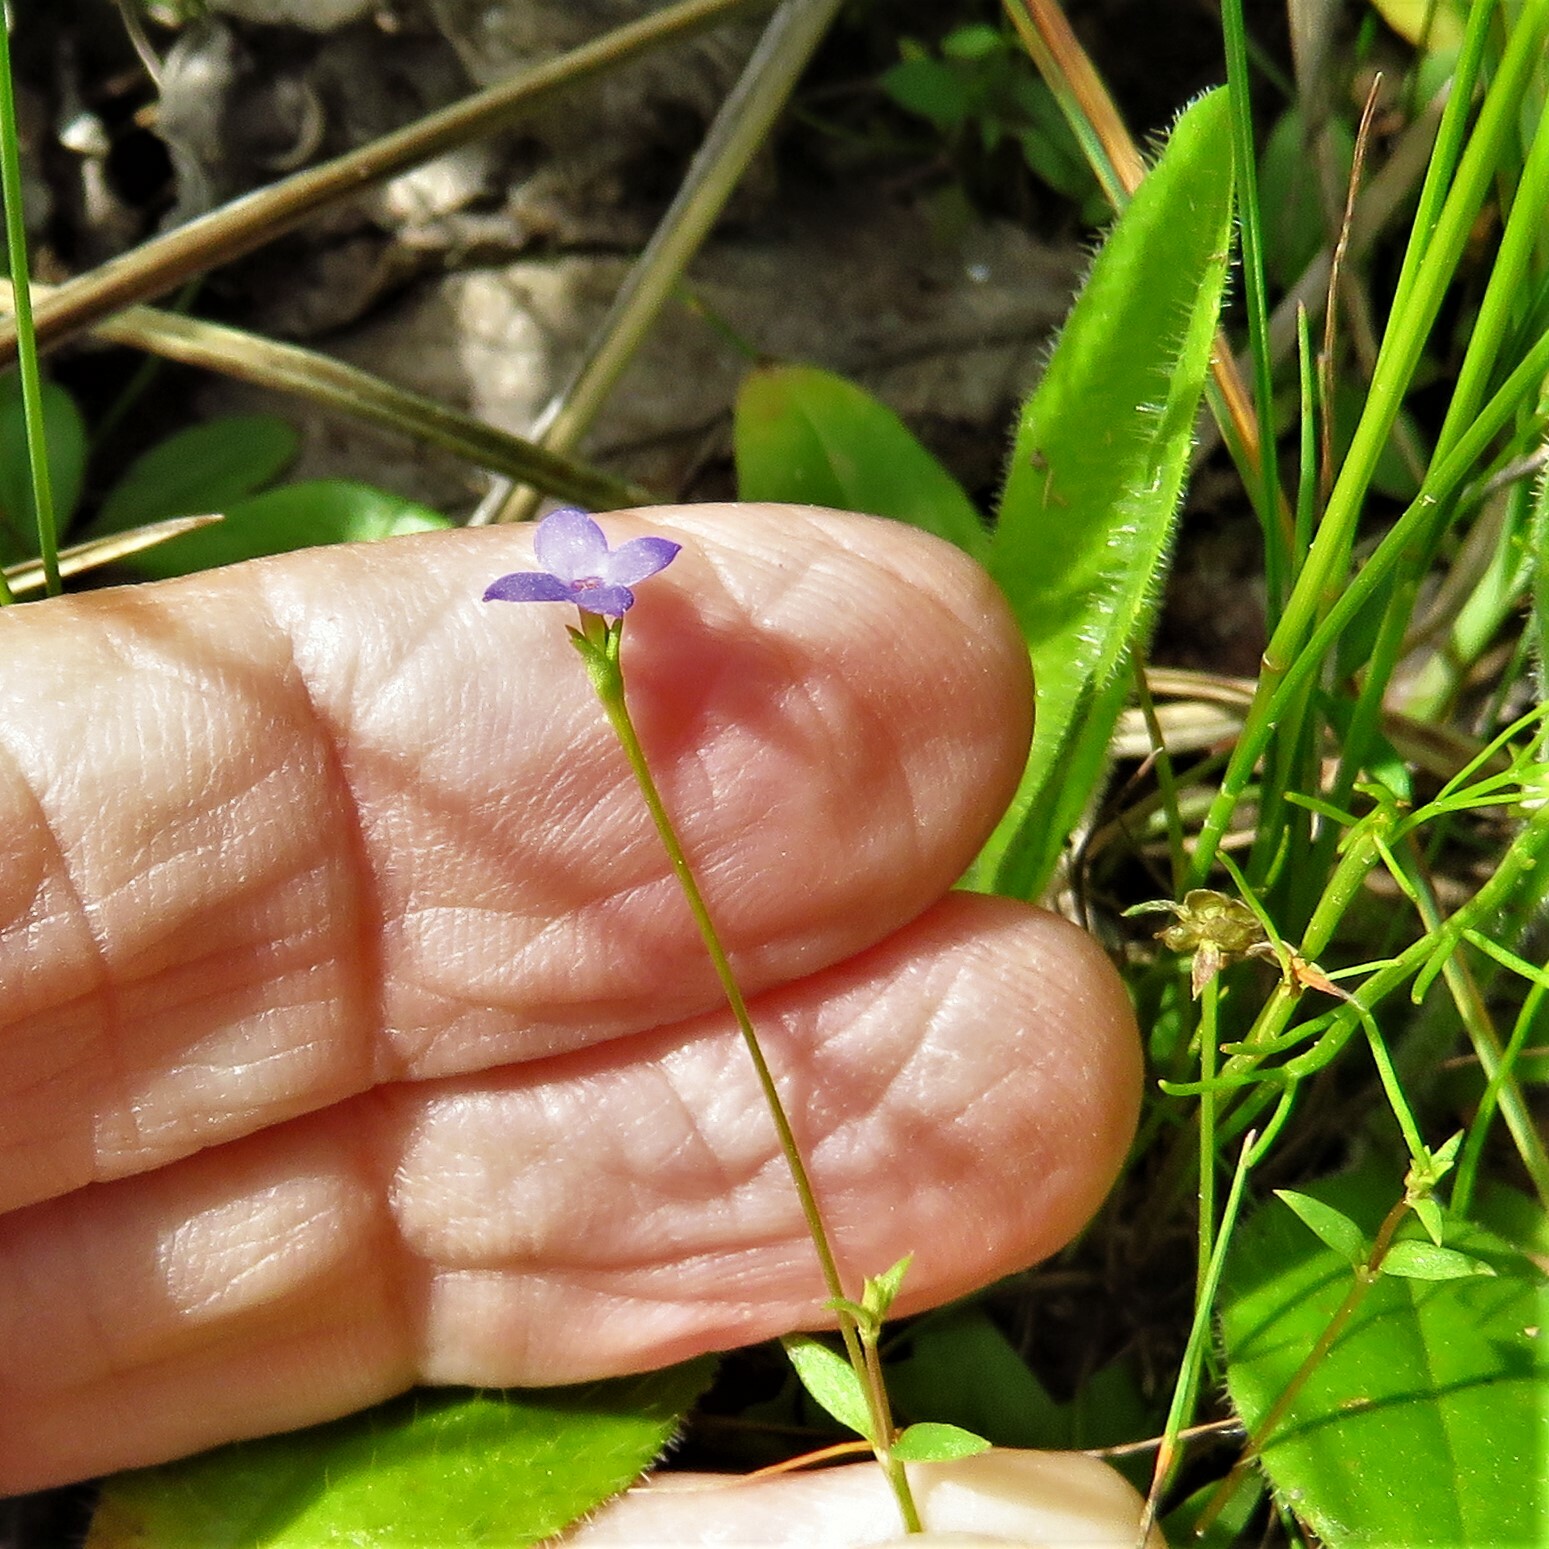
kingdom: Plantae
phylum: Tracheophyta
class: Magnoliopsida
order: Gentianales
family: Rubiaceae
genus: Houstonia
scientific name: Houstonia pusilla
